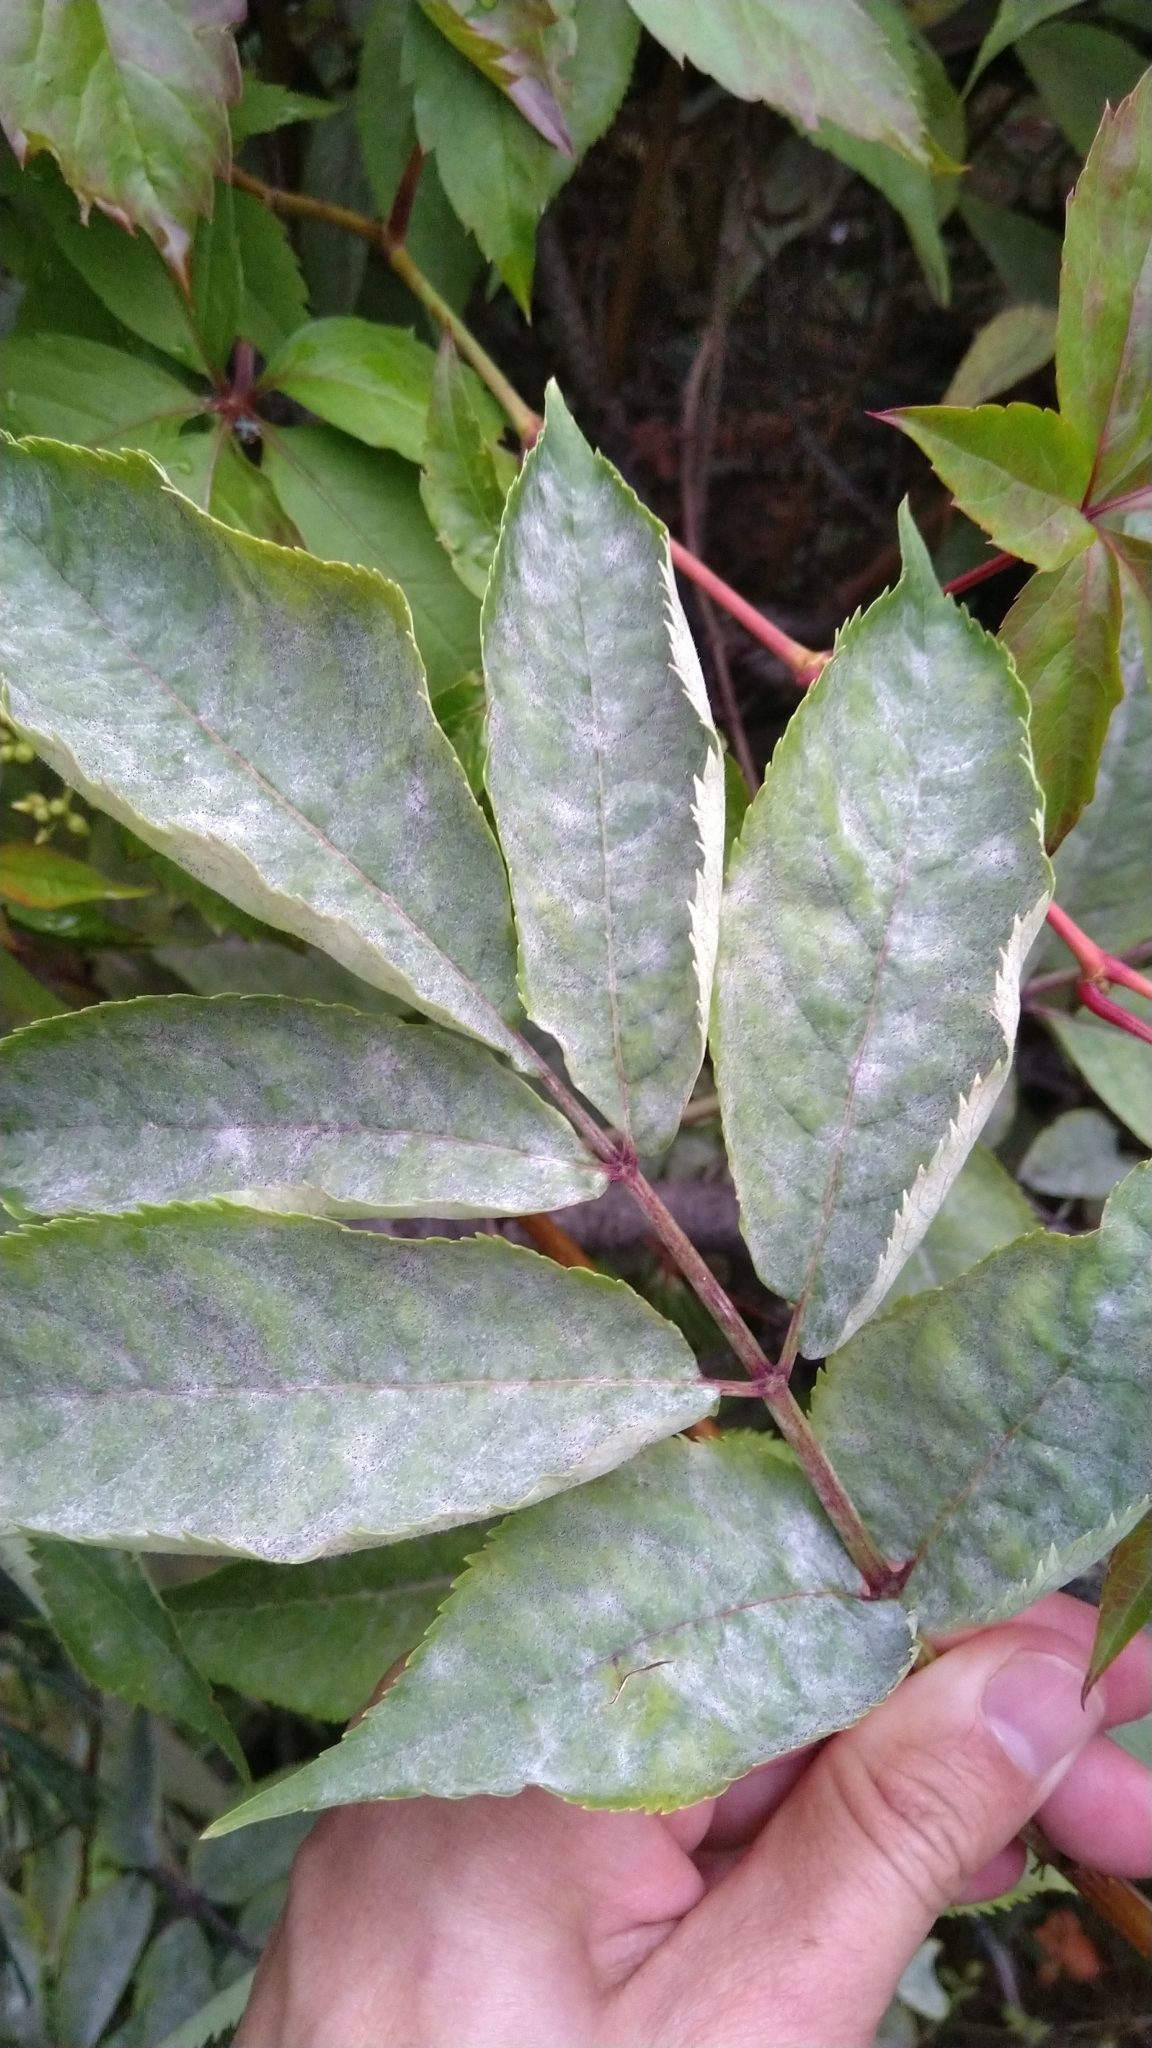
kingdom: Fungi
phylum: Ascomycota
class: Leotiomycetes
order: Helotiales
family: Erysiphaceae
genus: Erysiphe
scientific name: Erysiphe sambuci
